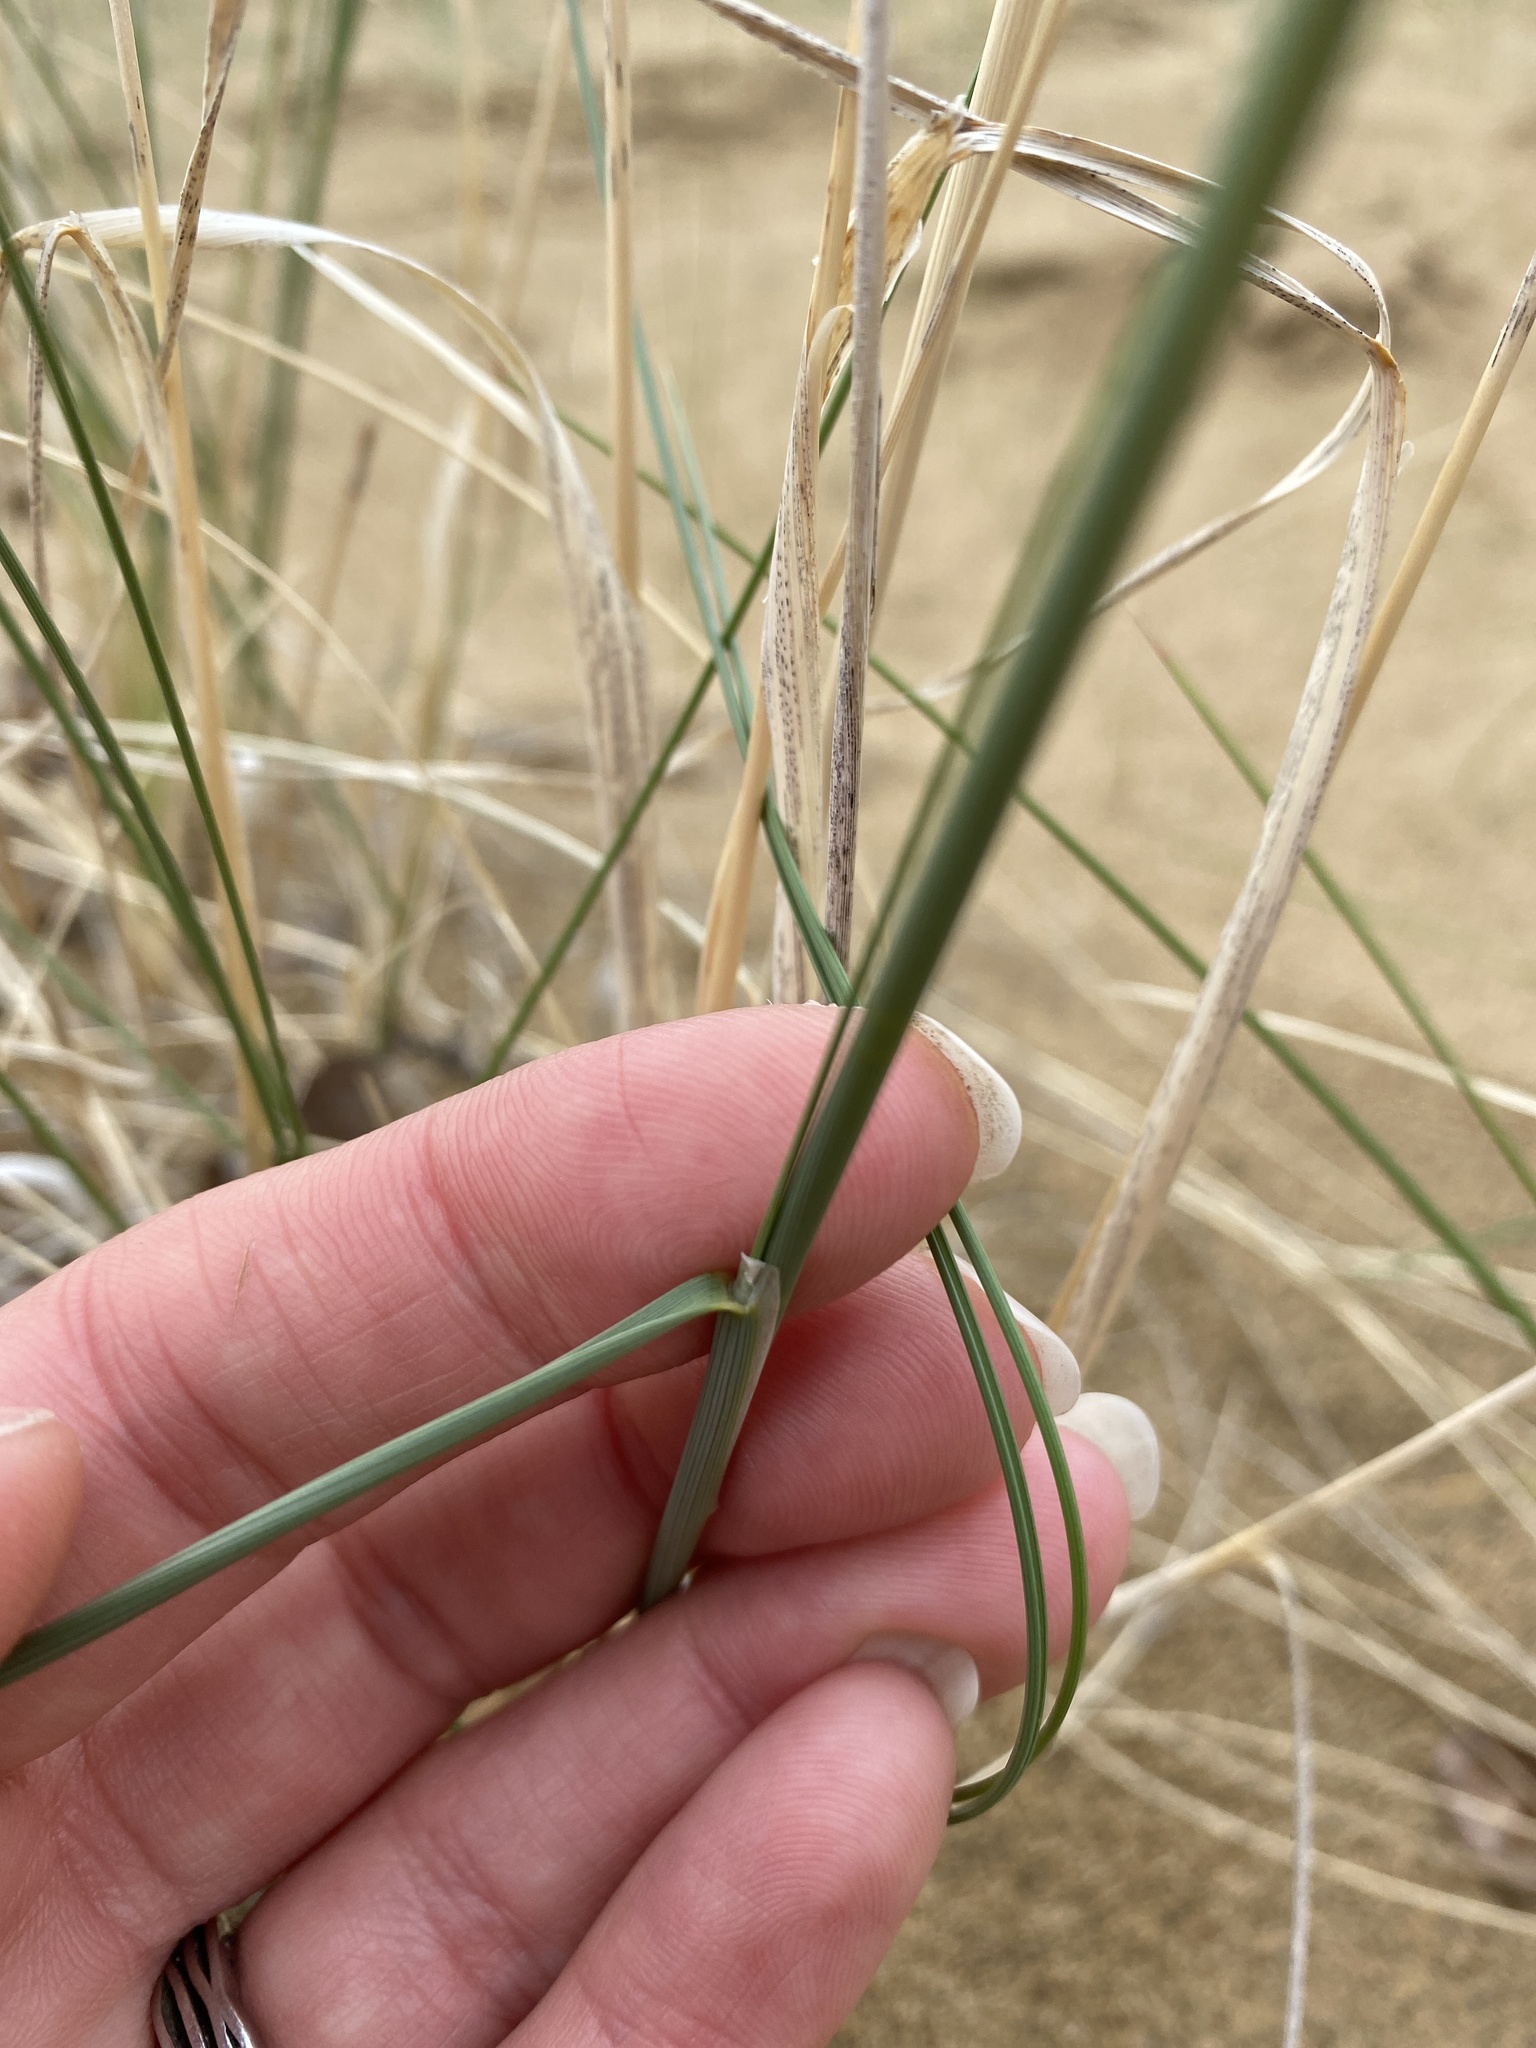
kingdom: Plantae
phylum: Tracheophyta
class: Liliopsida
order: Poales
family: Poaceae
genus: Eriocoma
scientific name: Eriocoma hymenoides
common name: Indian mountain ricegrass
